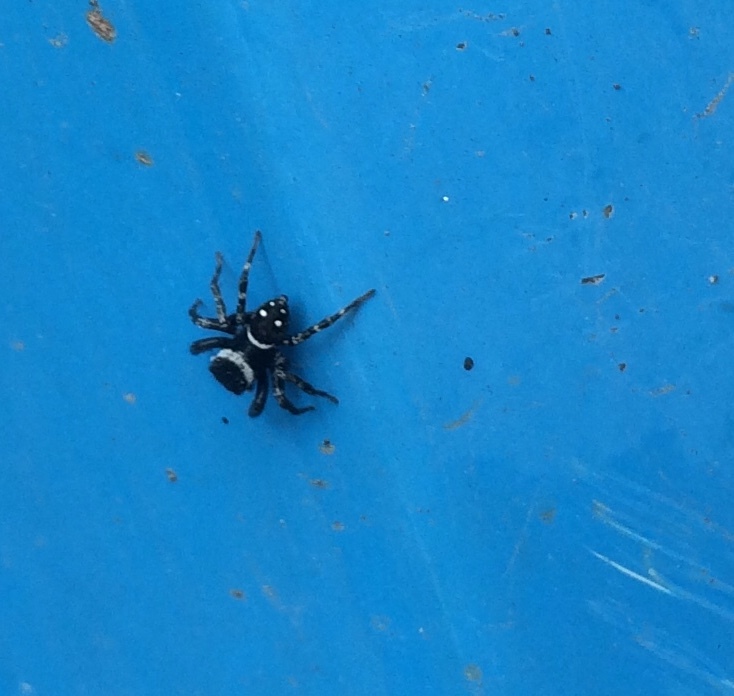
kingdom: Animalia
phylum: Arthropoda
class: Arachnida
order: Araneae
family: Salticidae
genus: Hasarius
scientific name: Hasarius adansoni
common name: Jumping spider
